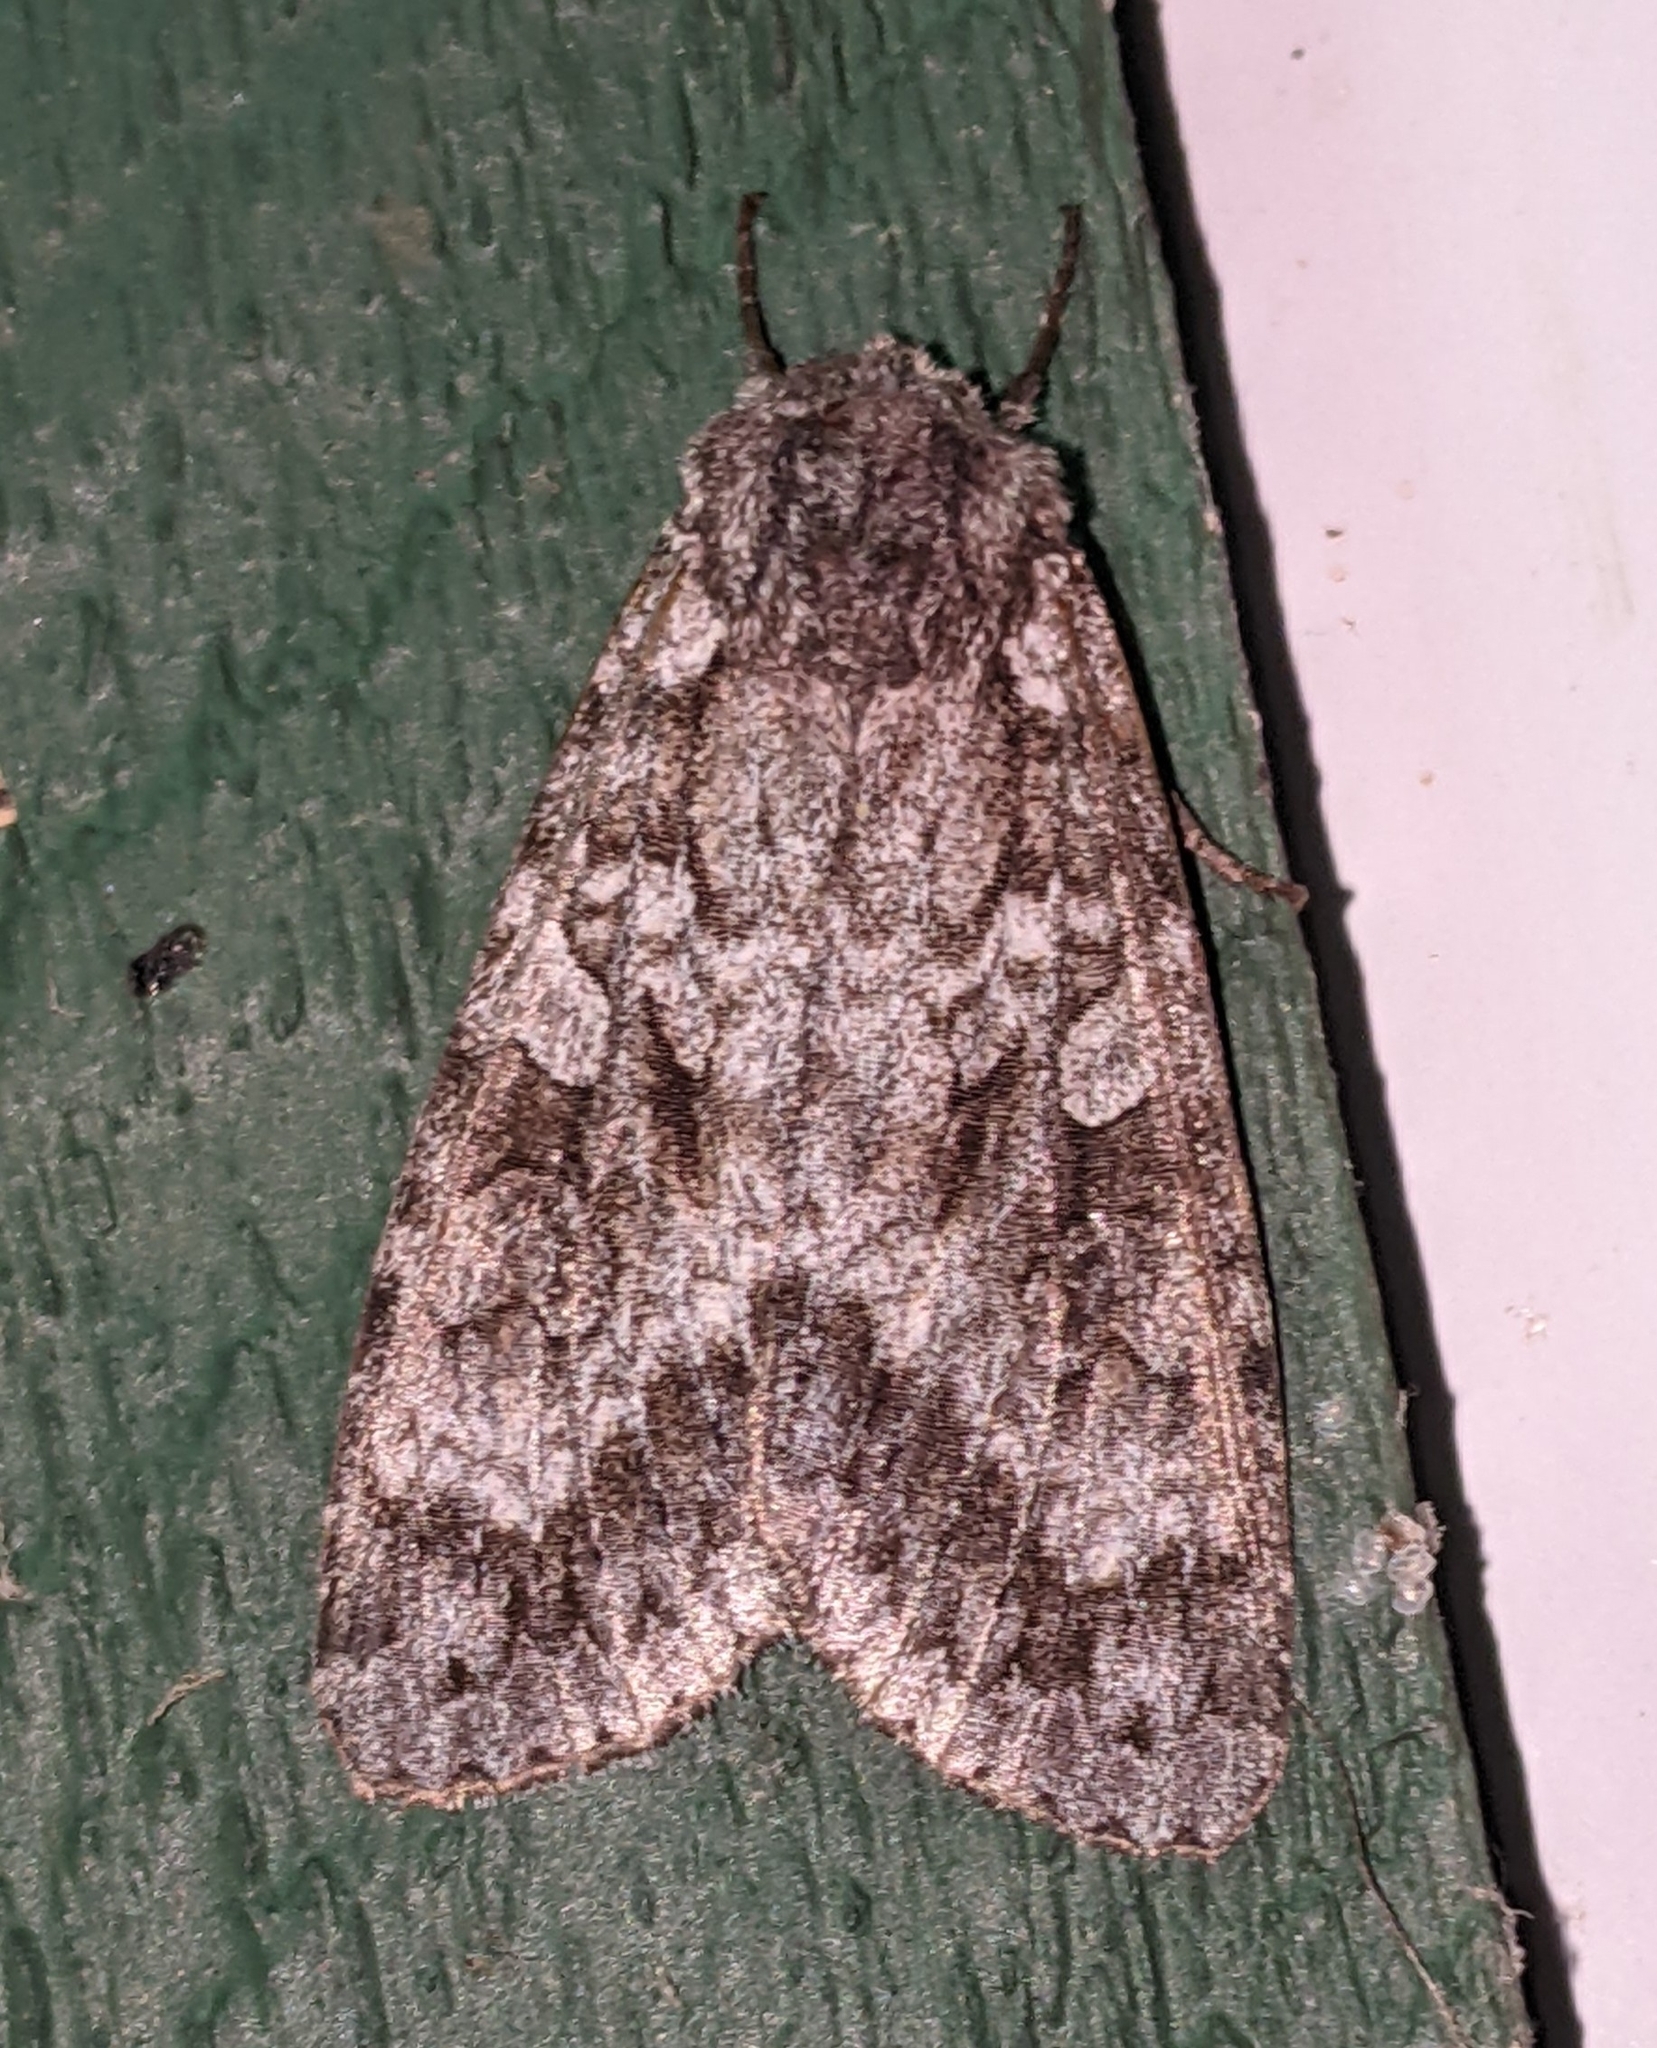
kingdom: Animalia
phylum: Arthropoda
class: Insecta
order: Lepidoptera
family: Noctuidae
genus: Eurois
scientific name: Eurois occulta
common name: Great brocade
